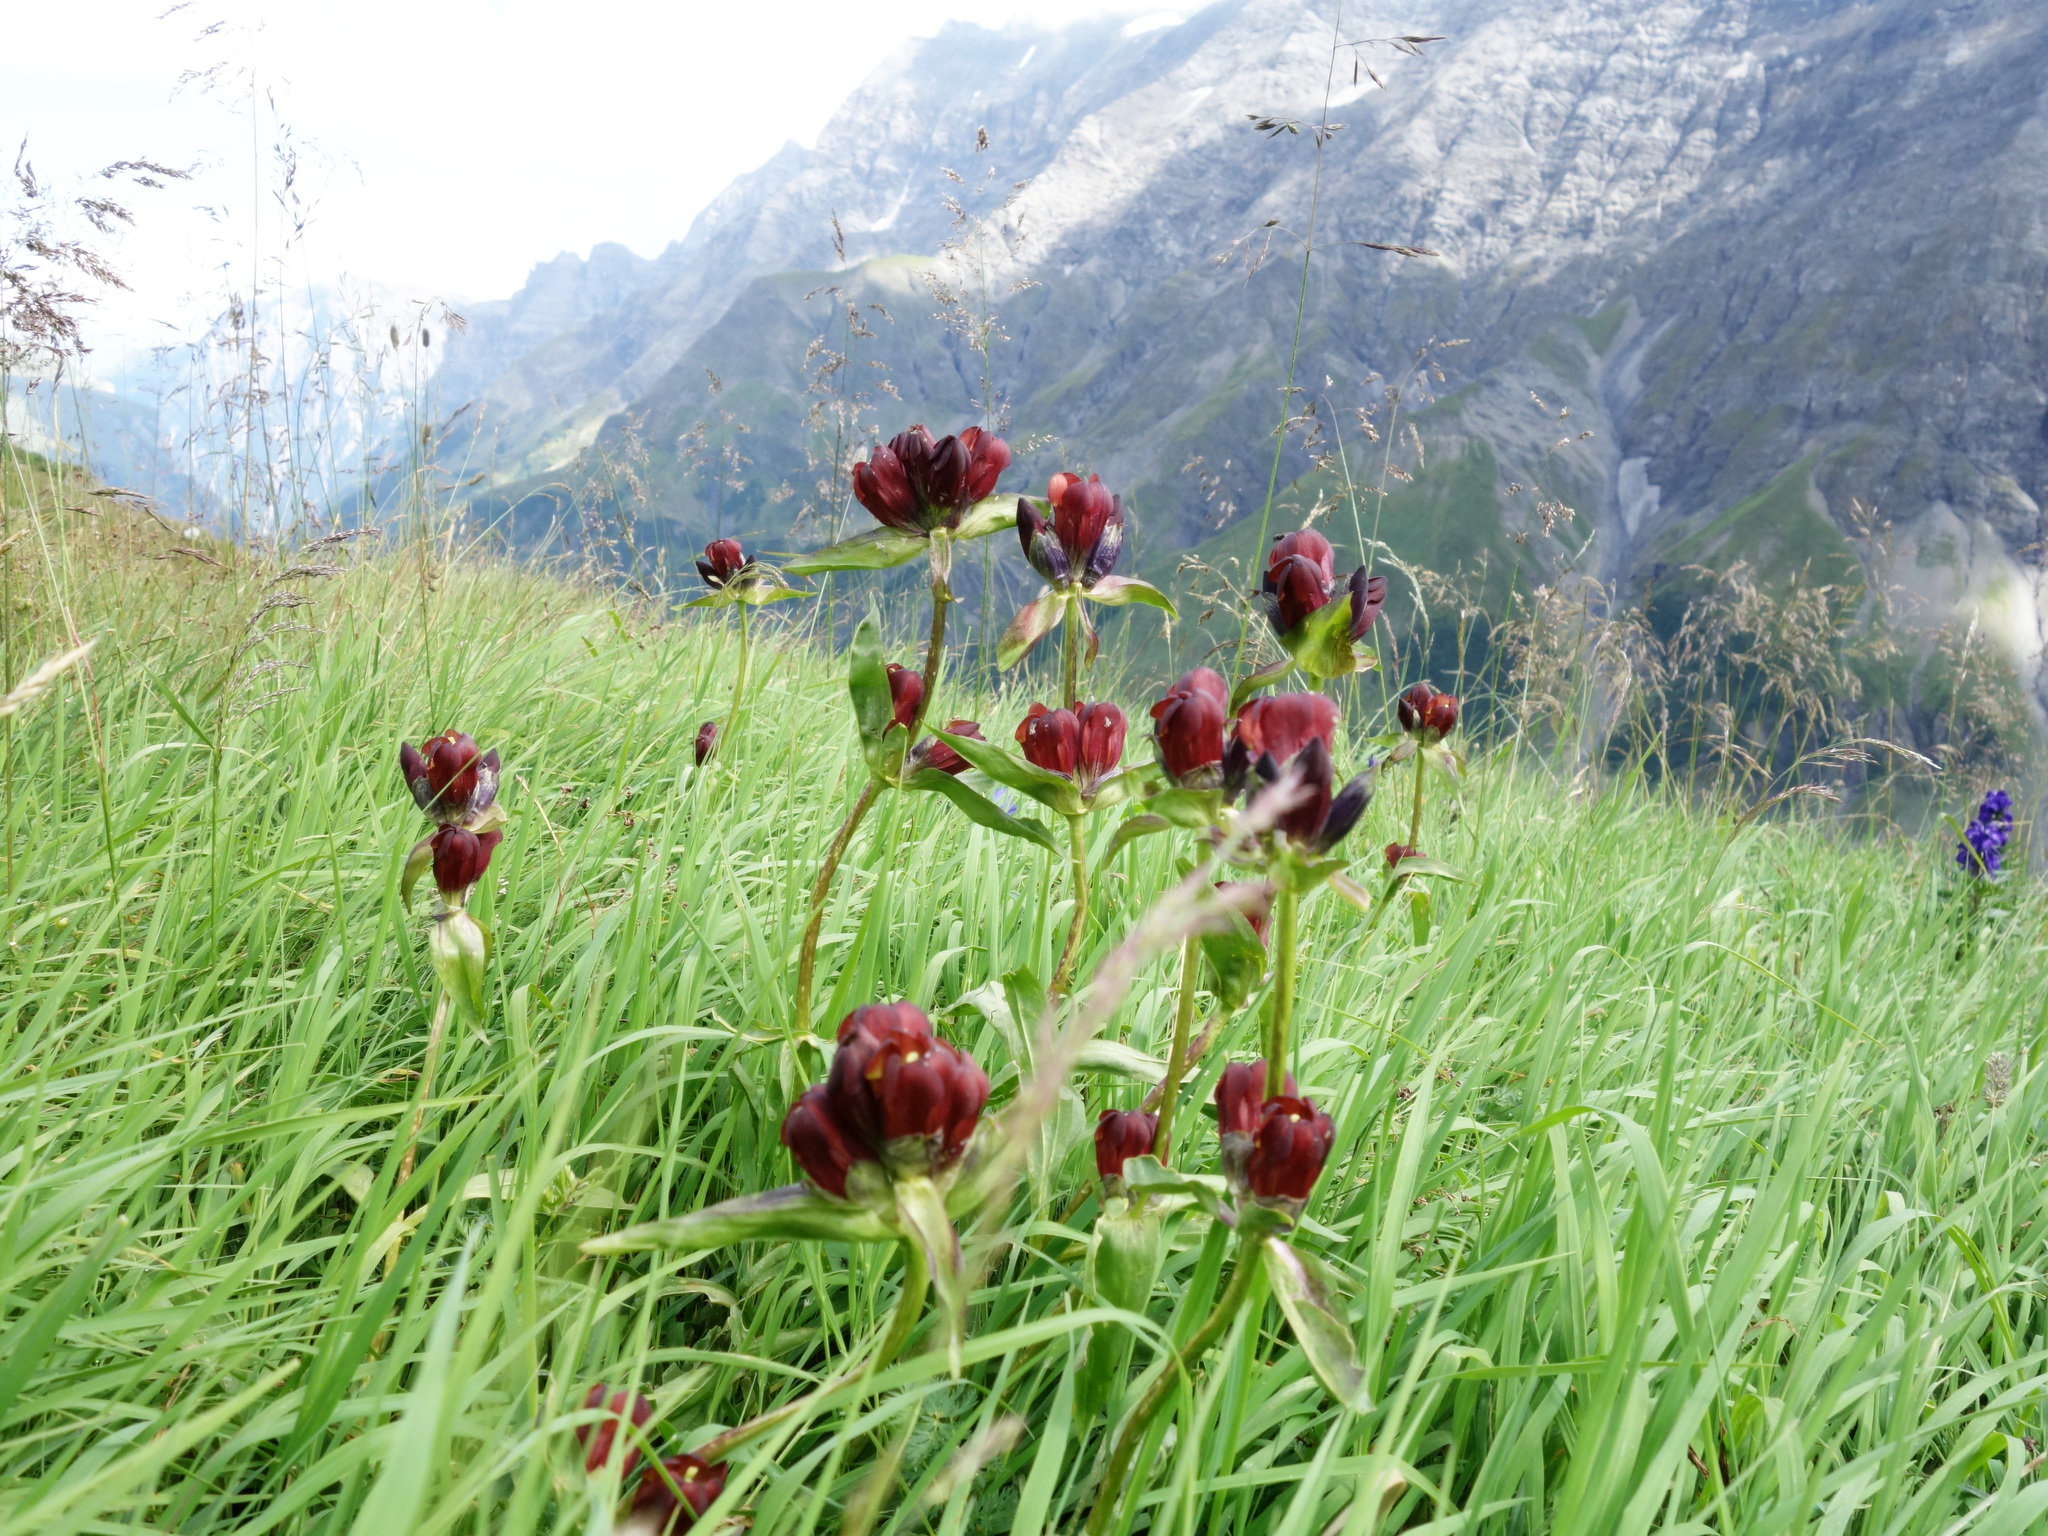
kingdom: Plantae
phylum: Tracheophyta
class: Magnoliopsida
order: Gentianales
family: Gentianaceae
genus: Gentiana
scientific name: Gentiana purpurea
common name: Purple gentian
